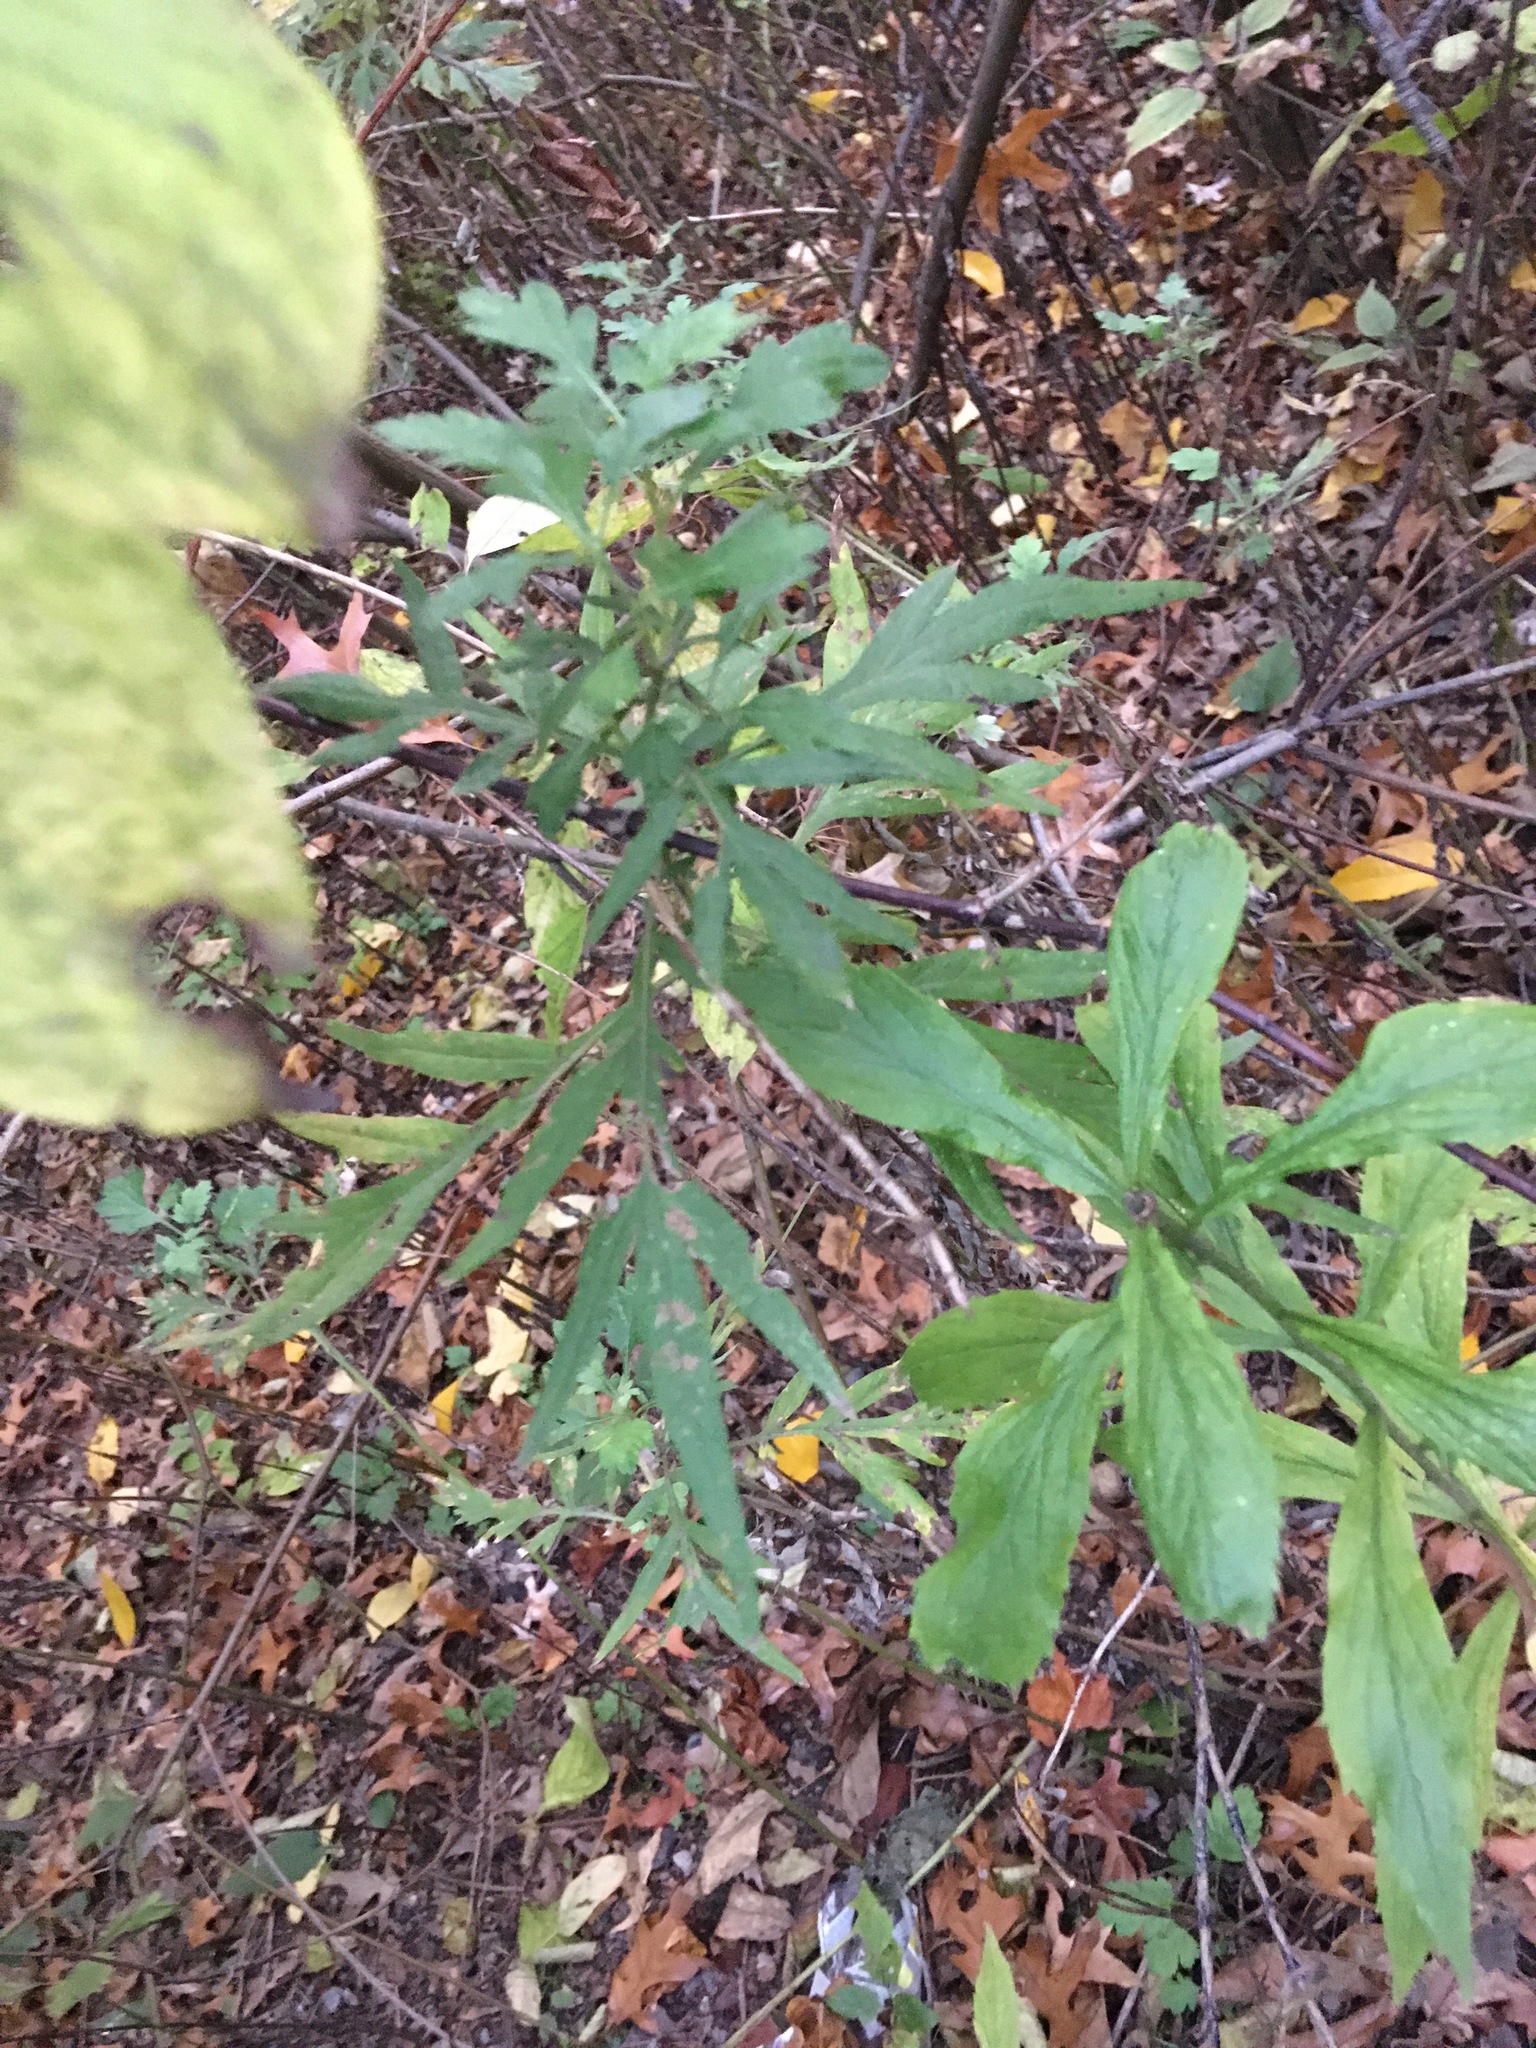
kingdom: Plantae
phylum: Tracheophyta
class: Magnoliopsida
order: Asterales
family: Asteraceae
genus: Artemisia
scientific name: Artemisia vulgaris
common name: Mugwort
